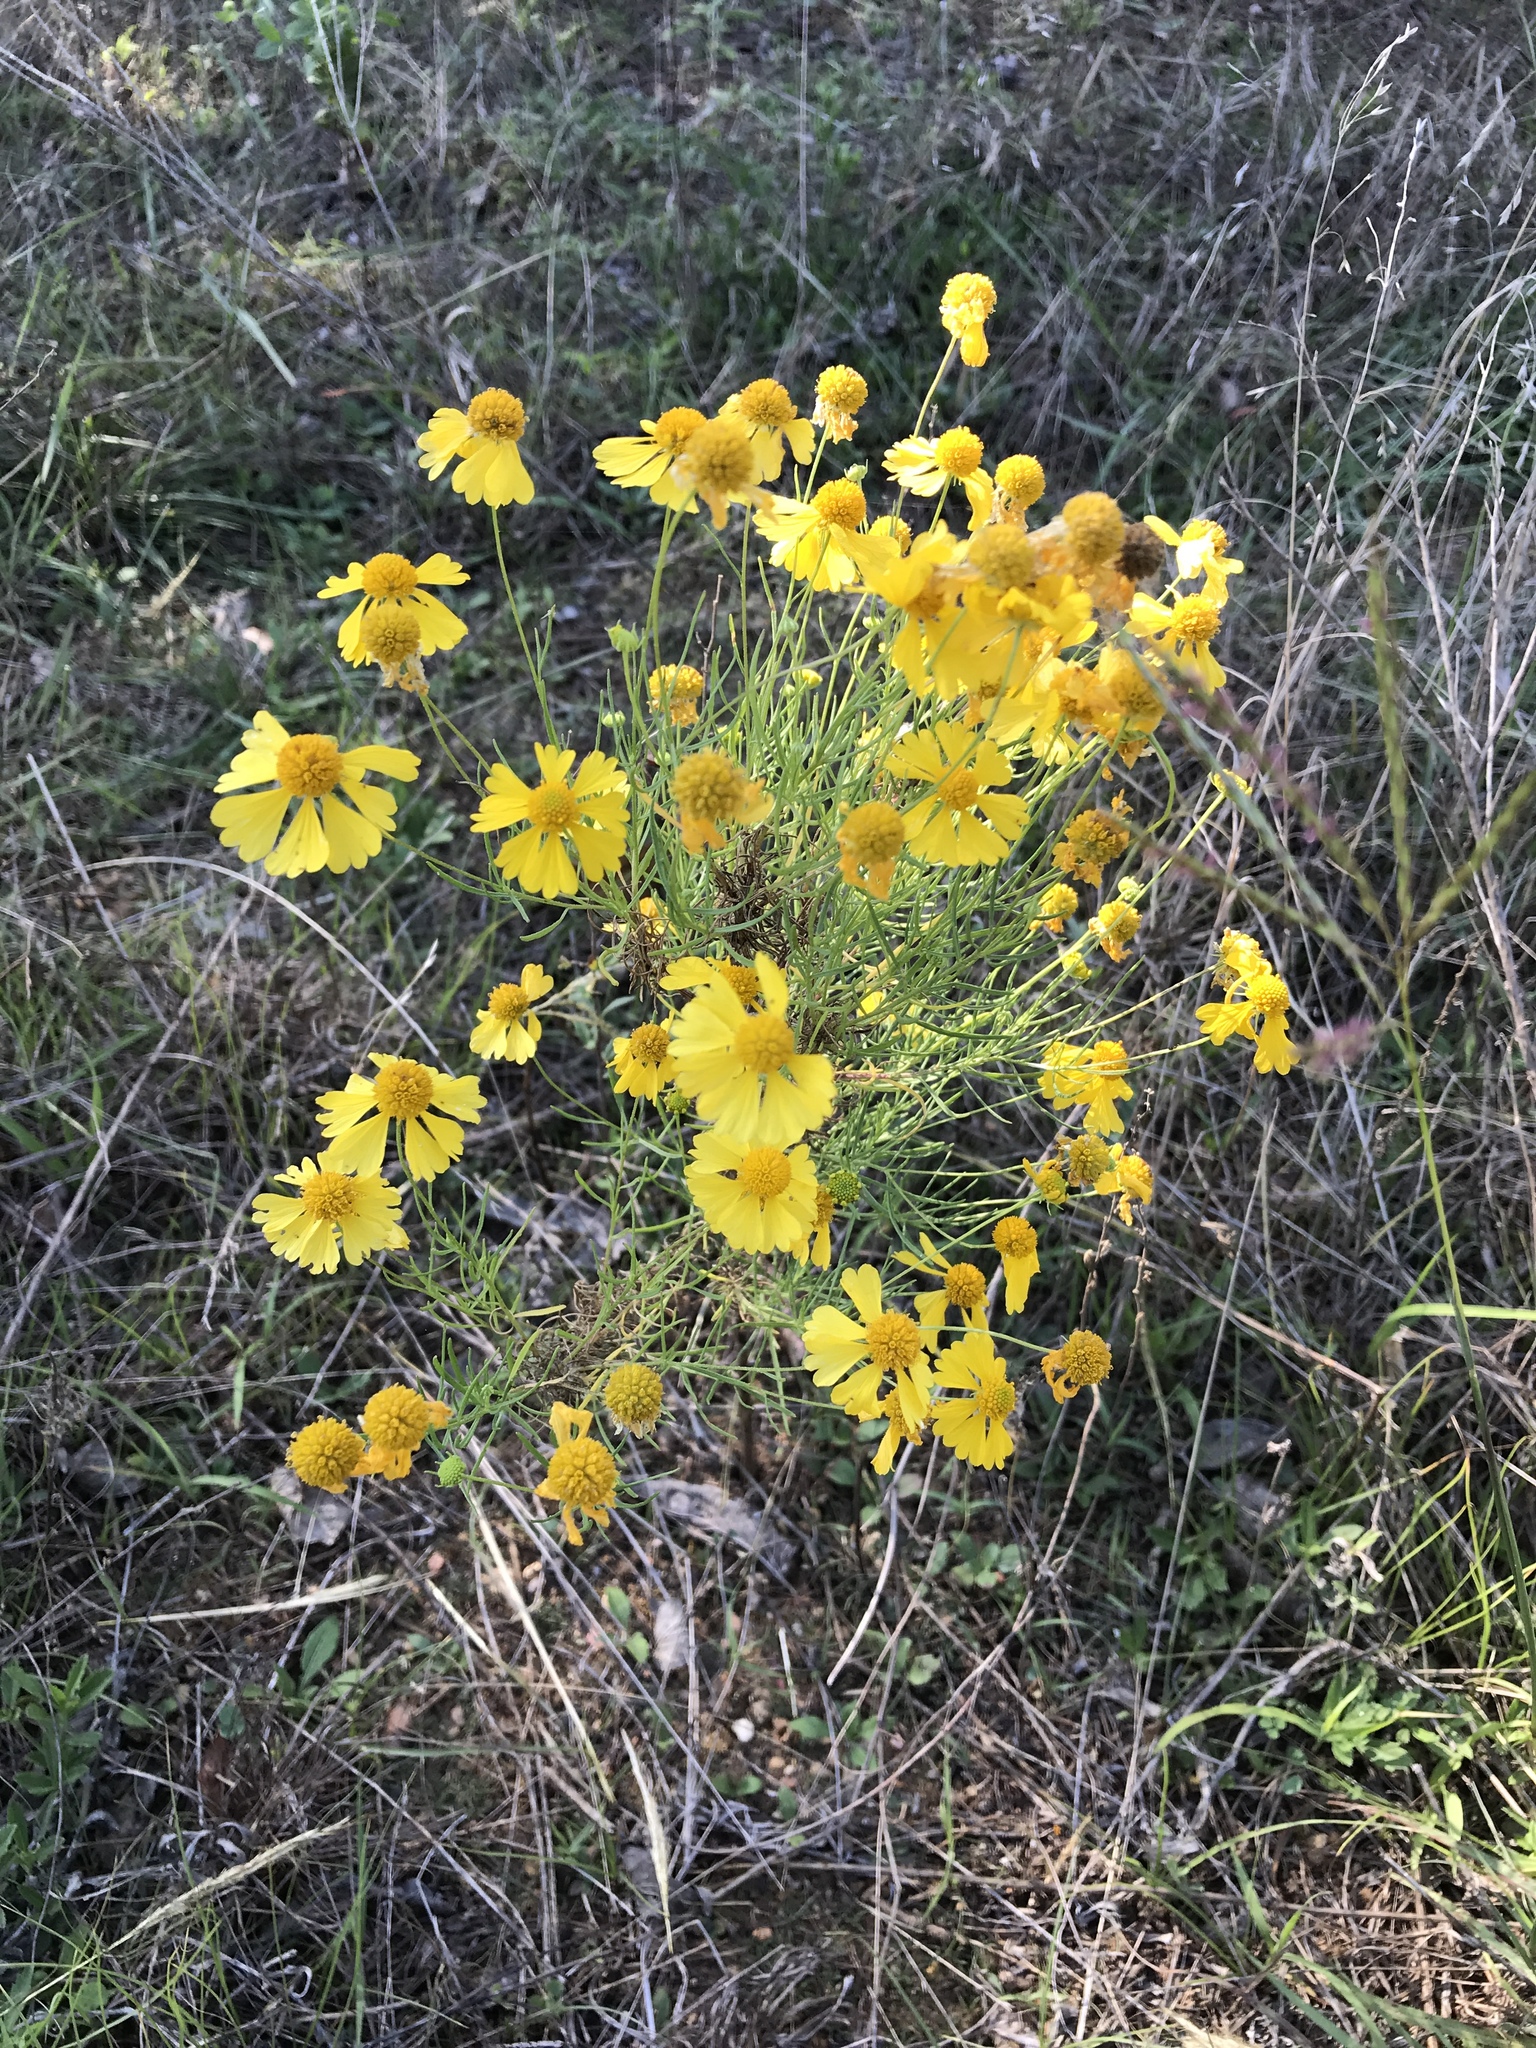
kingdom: Plantae
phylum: Tracheophyta
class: Magnoliopsida
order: Asterales
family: Asteraceae
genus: Helenium
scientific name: Helenium amarum
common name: Bitter sneezeweed
